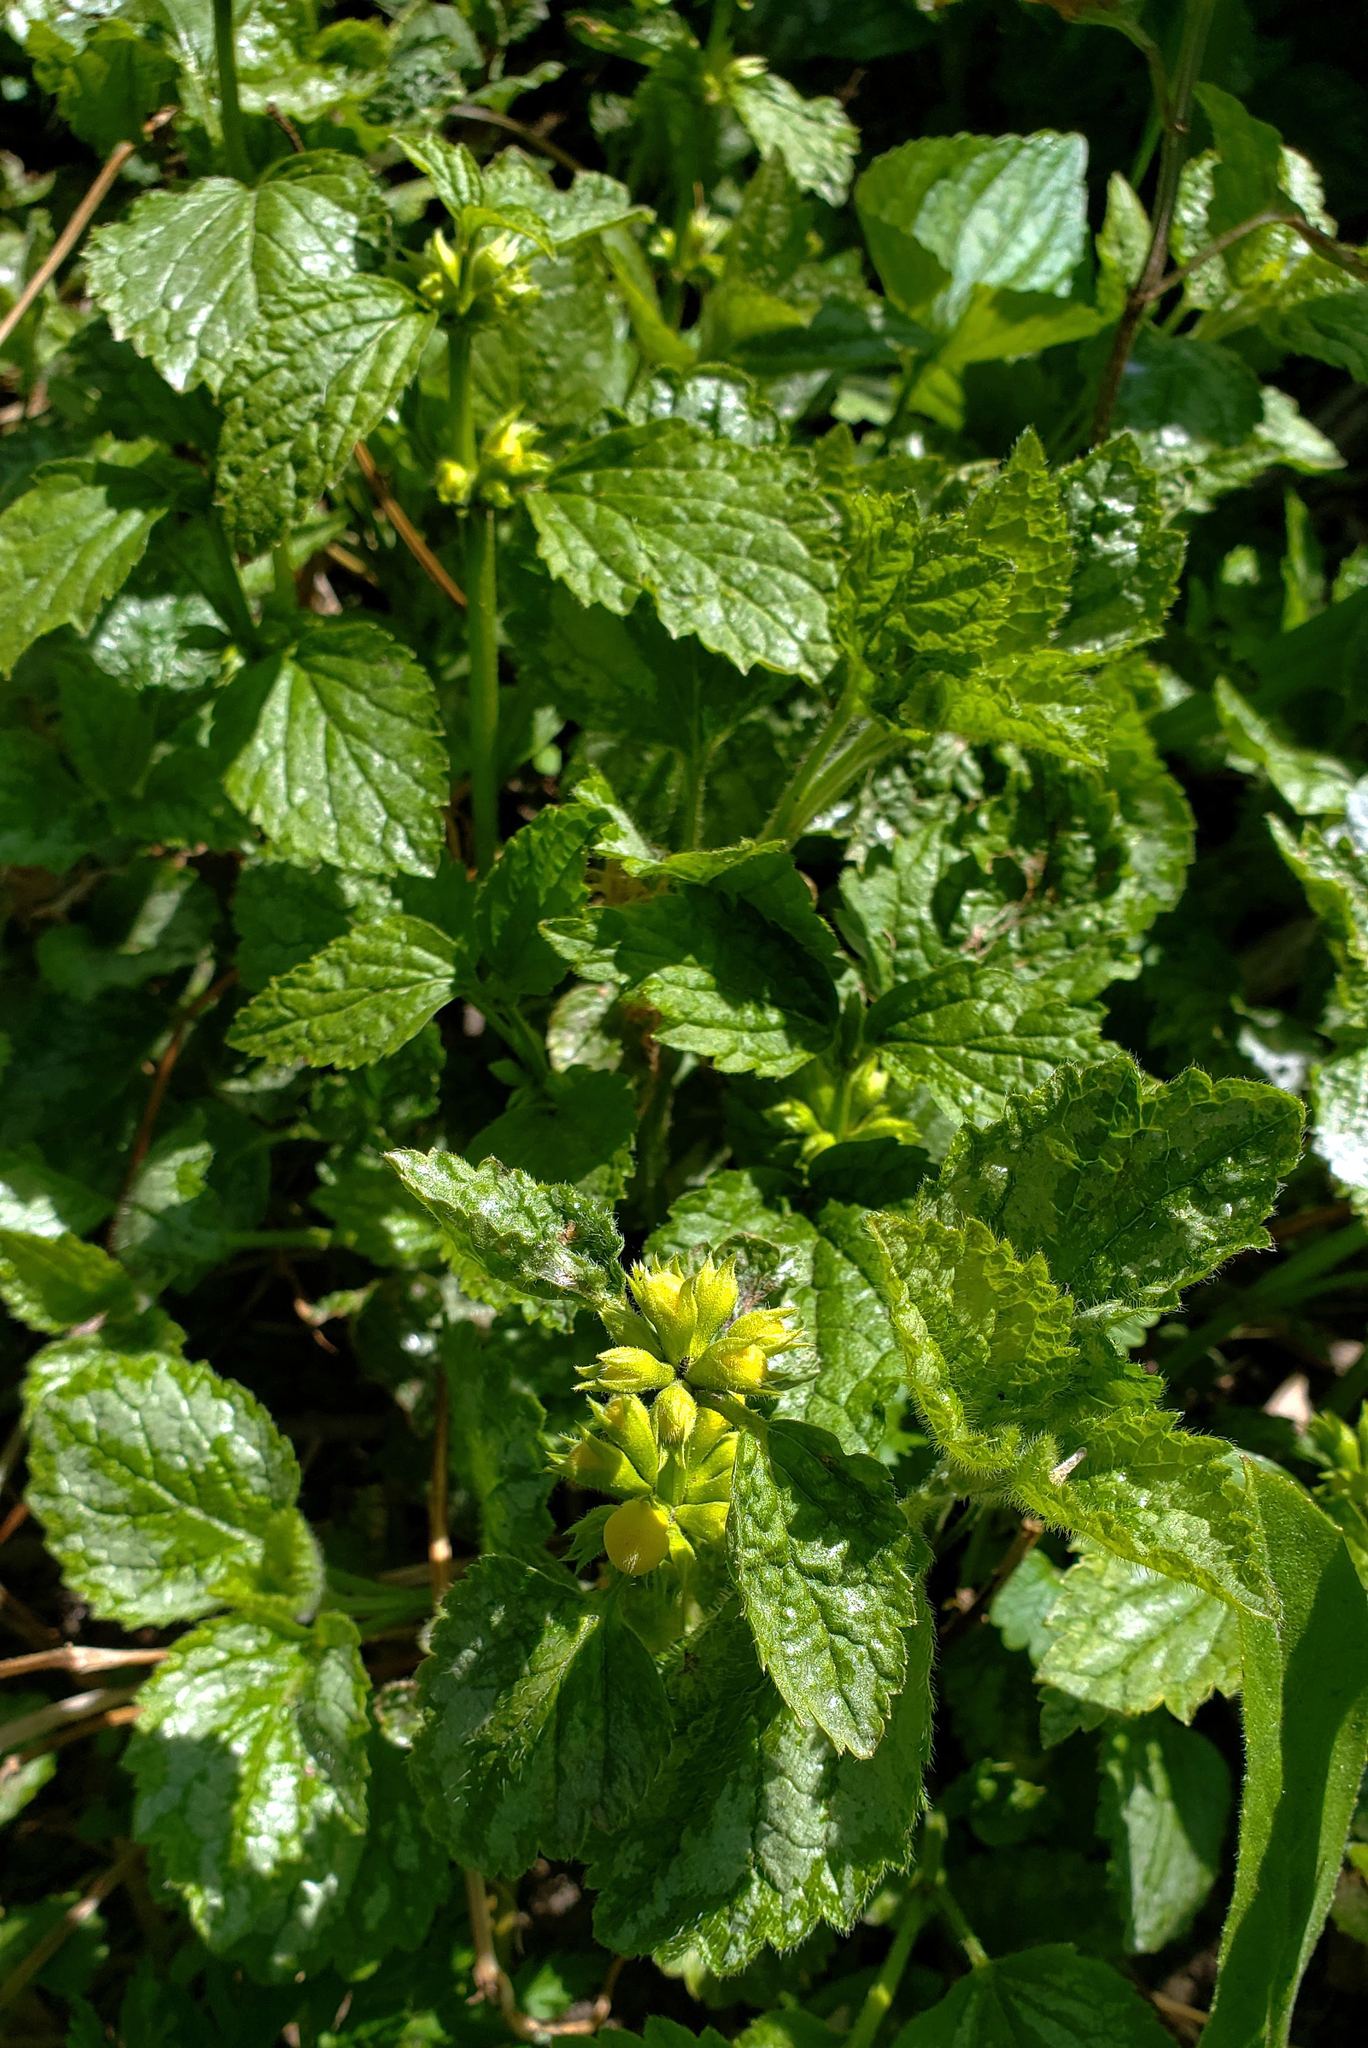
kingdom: Plantae
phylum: Tracheophyta
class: Magnoliopsida
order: Lamiales
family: Lamiaceae
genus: Lamium
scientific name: Lamium galeobdolon
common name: Yellow archangel
